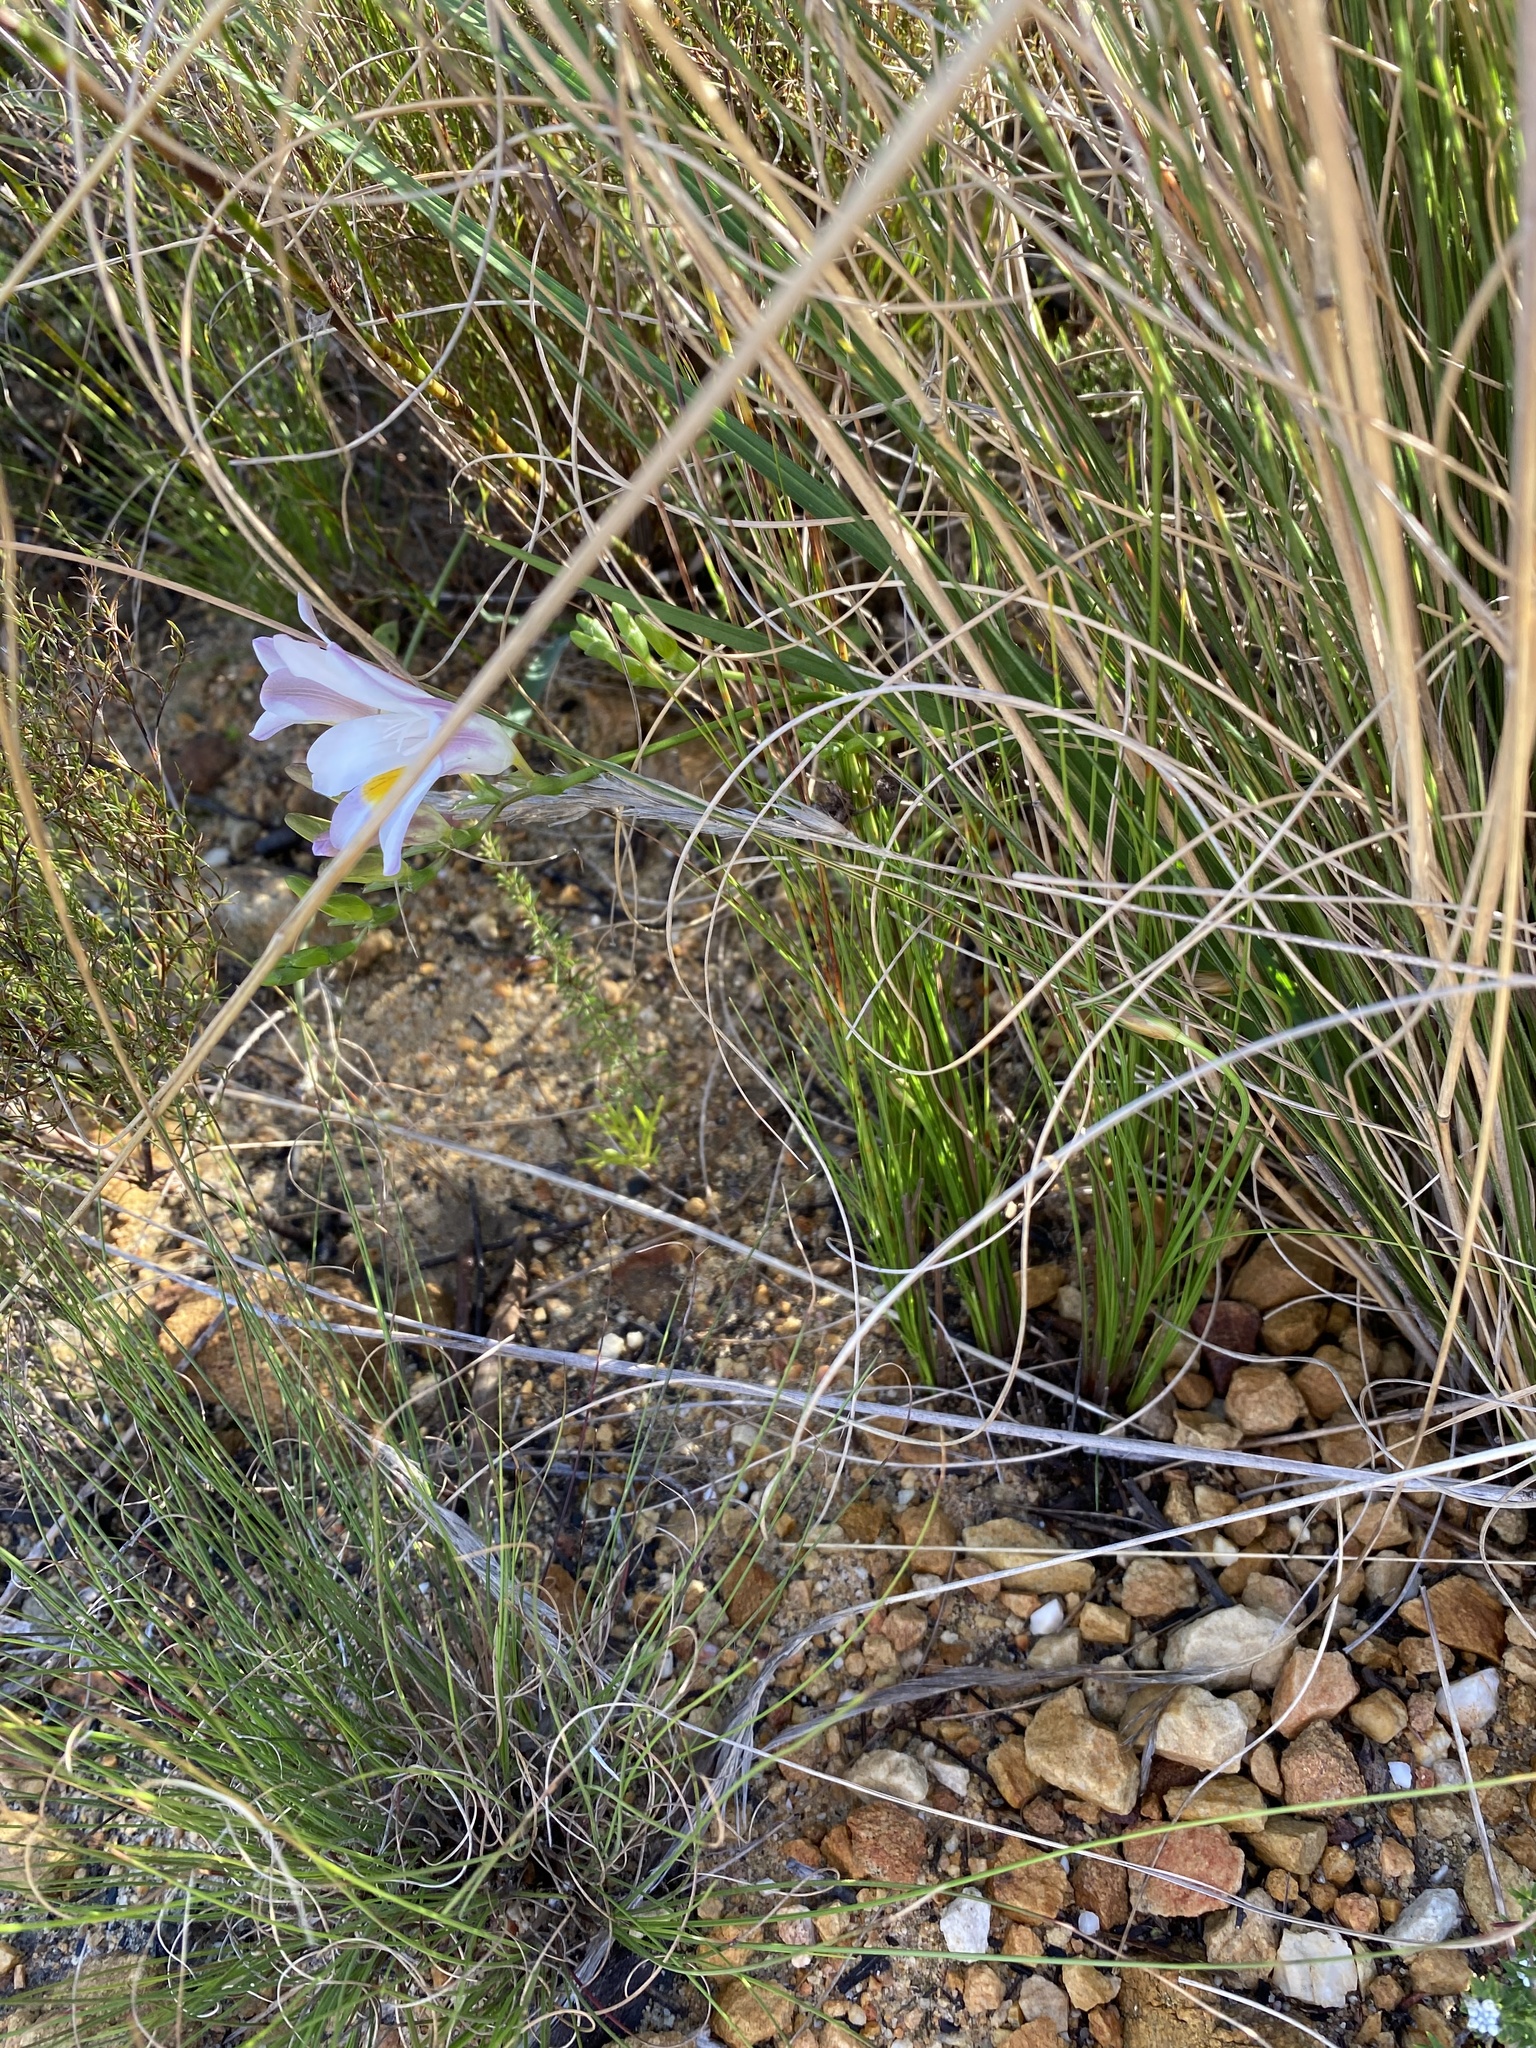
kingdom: Plantae
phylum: Tracheophyta
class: Liliopsida
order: Asparagales
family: Iridaceae
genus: Freesia
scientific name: Freesia caryophyllacea
